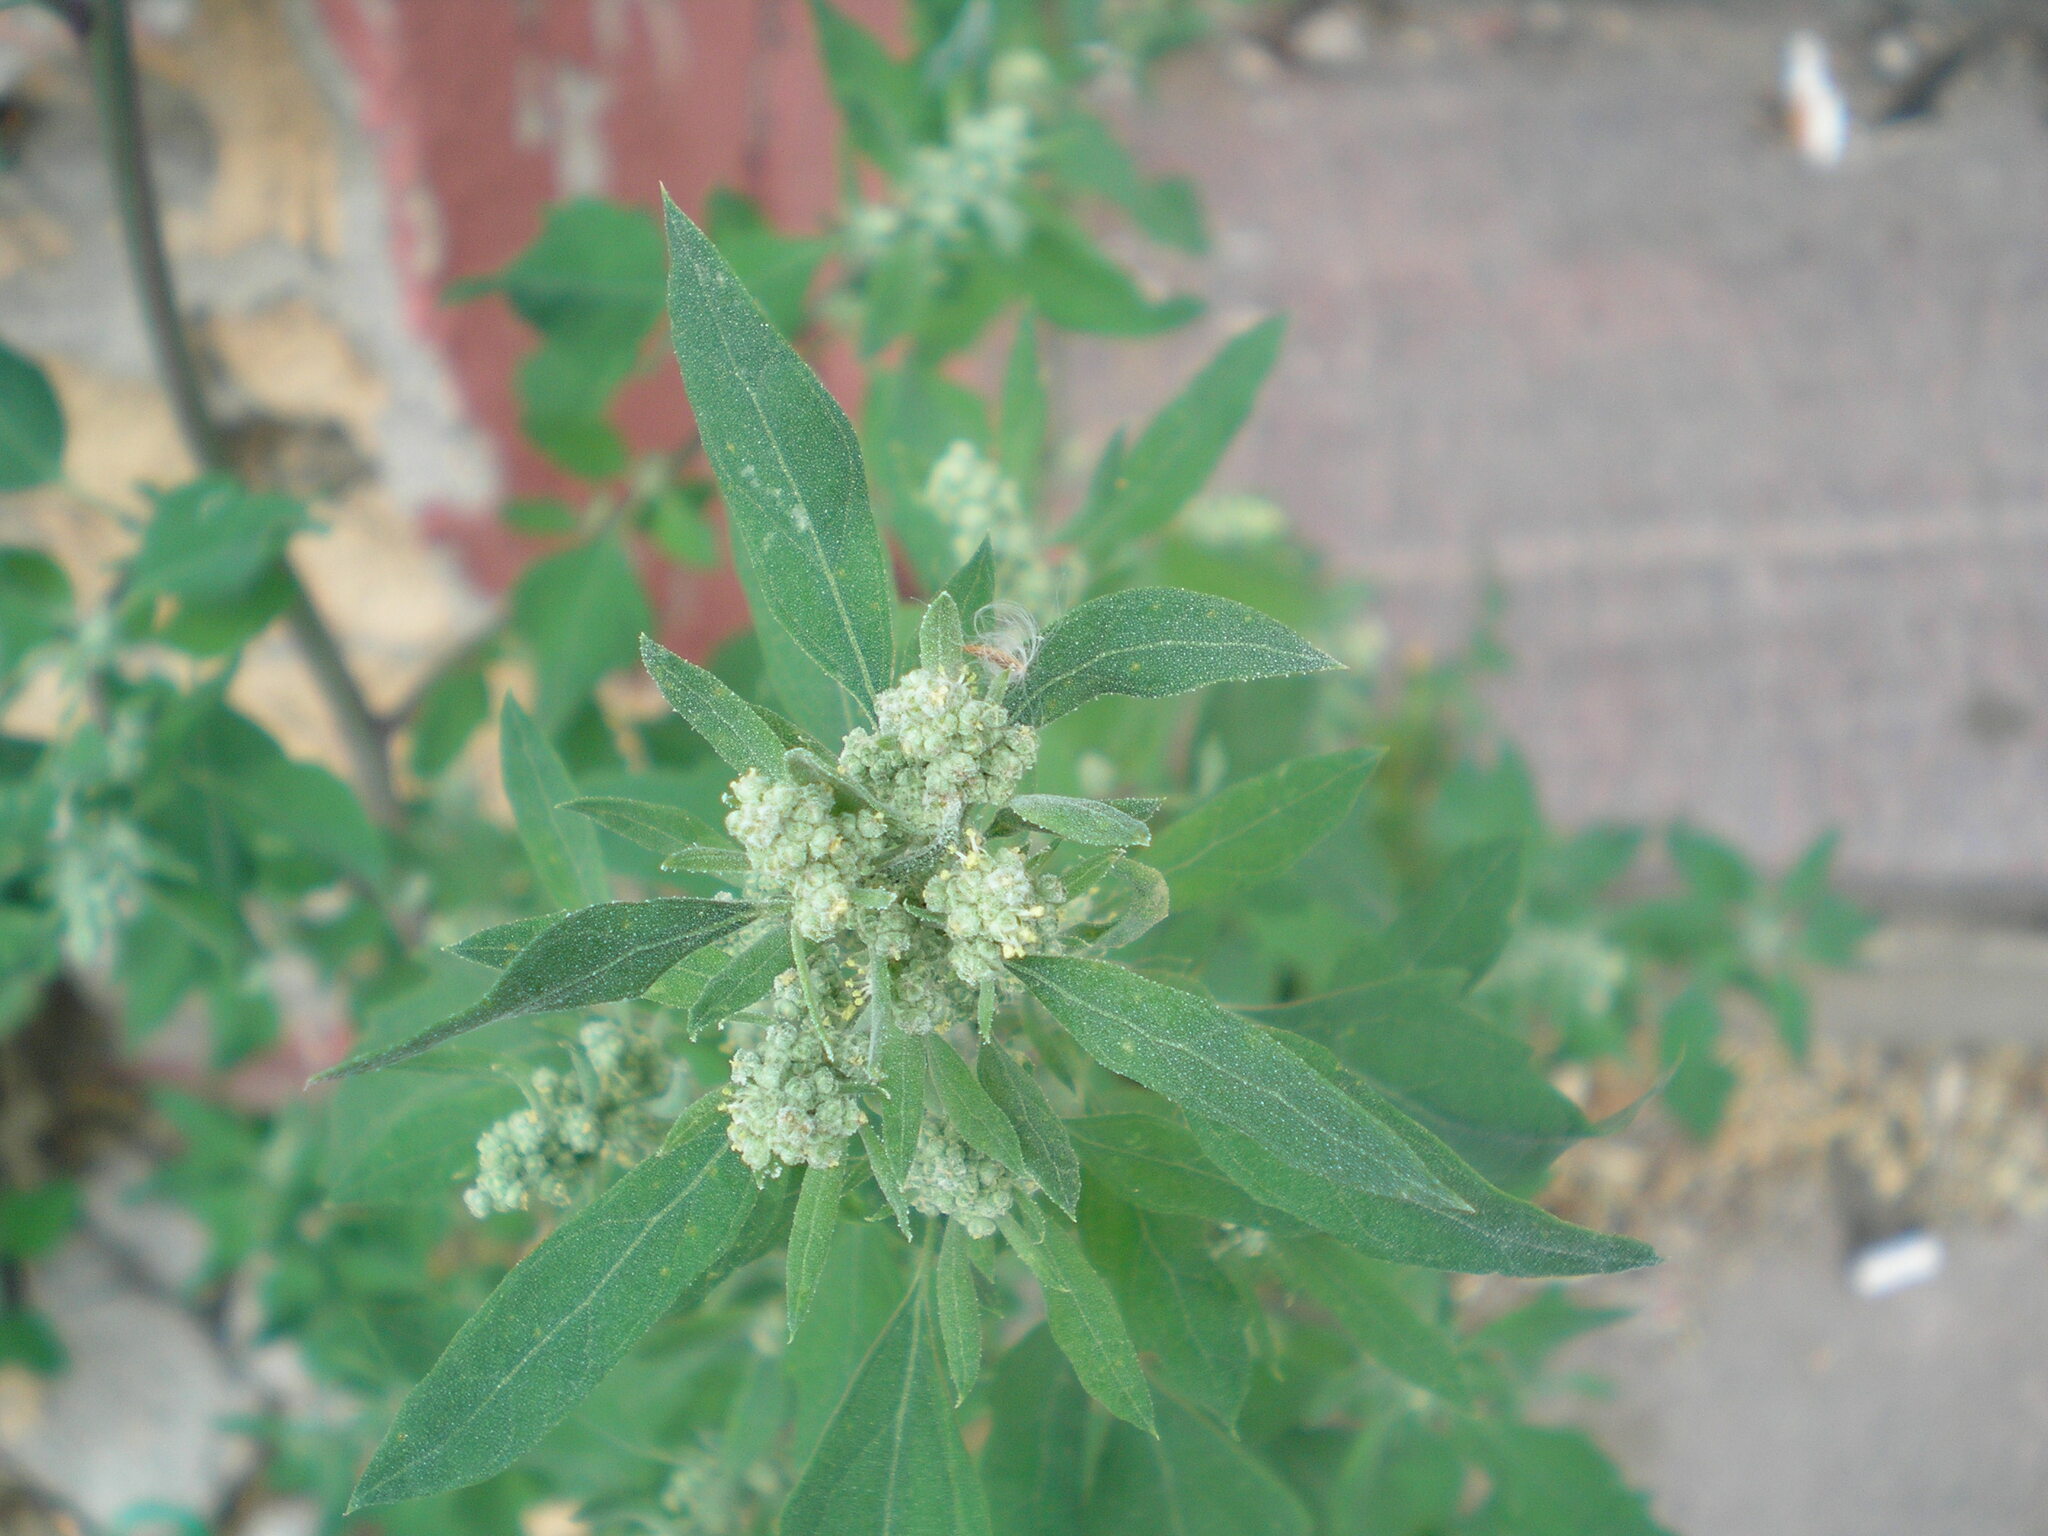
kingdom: Plantae
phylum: Tracheophyta
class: Magnoliopsida
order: Caryophyllales
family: Amaranthaceae
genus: Chenopodium
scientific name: Chenopodium album
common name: Fat-hen
